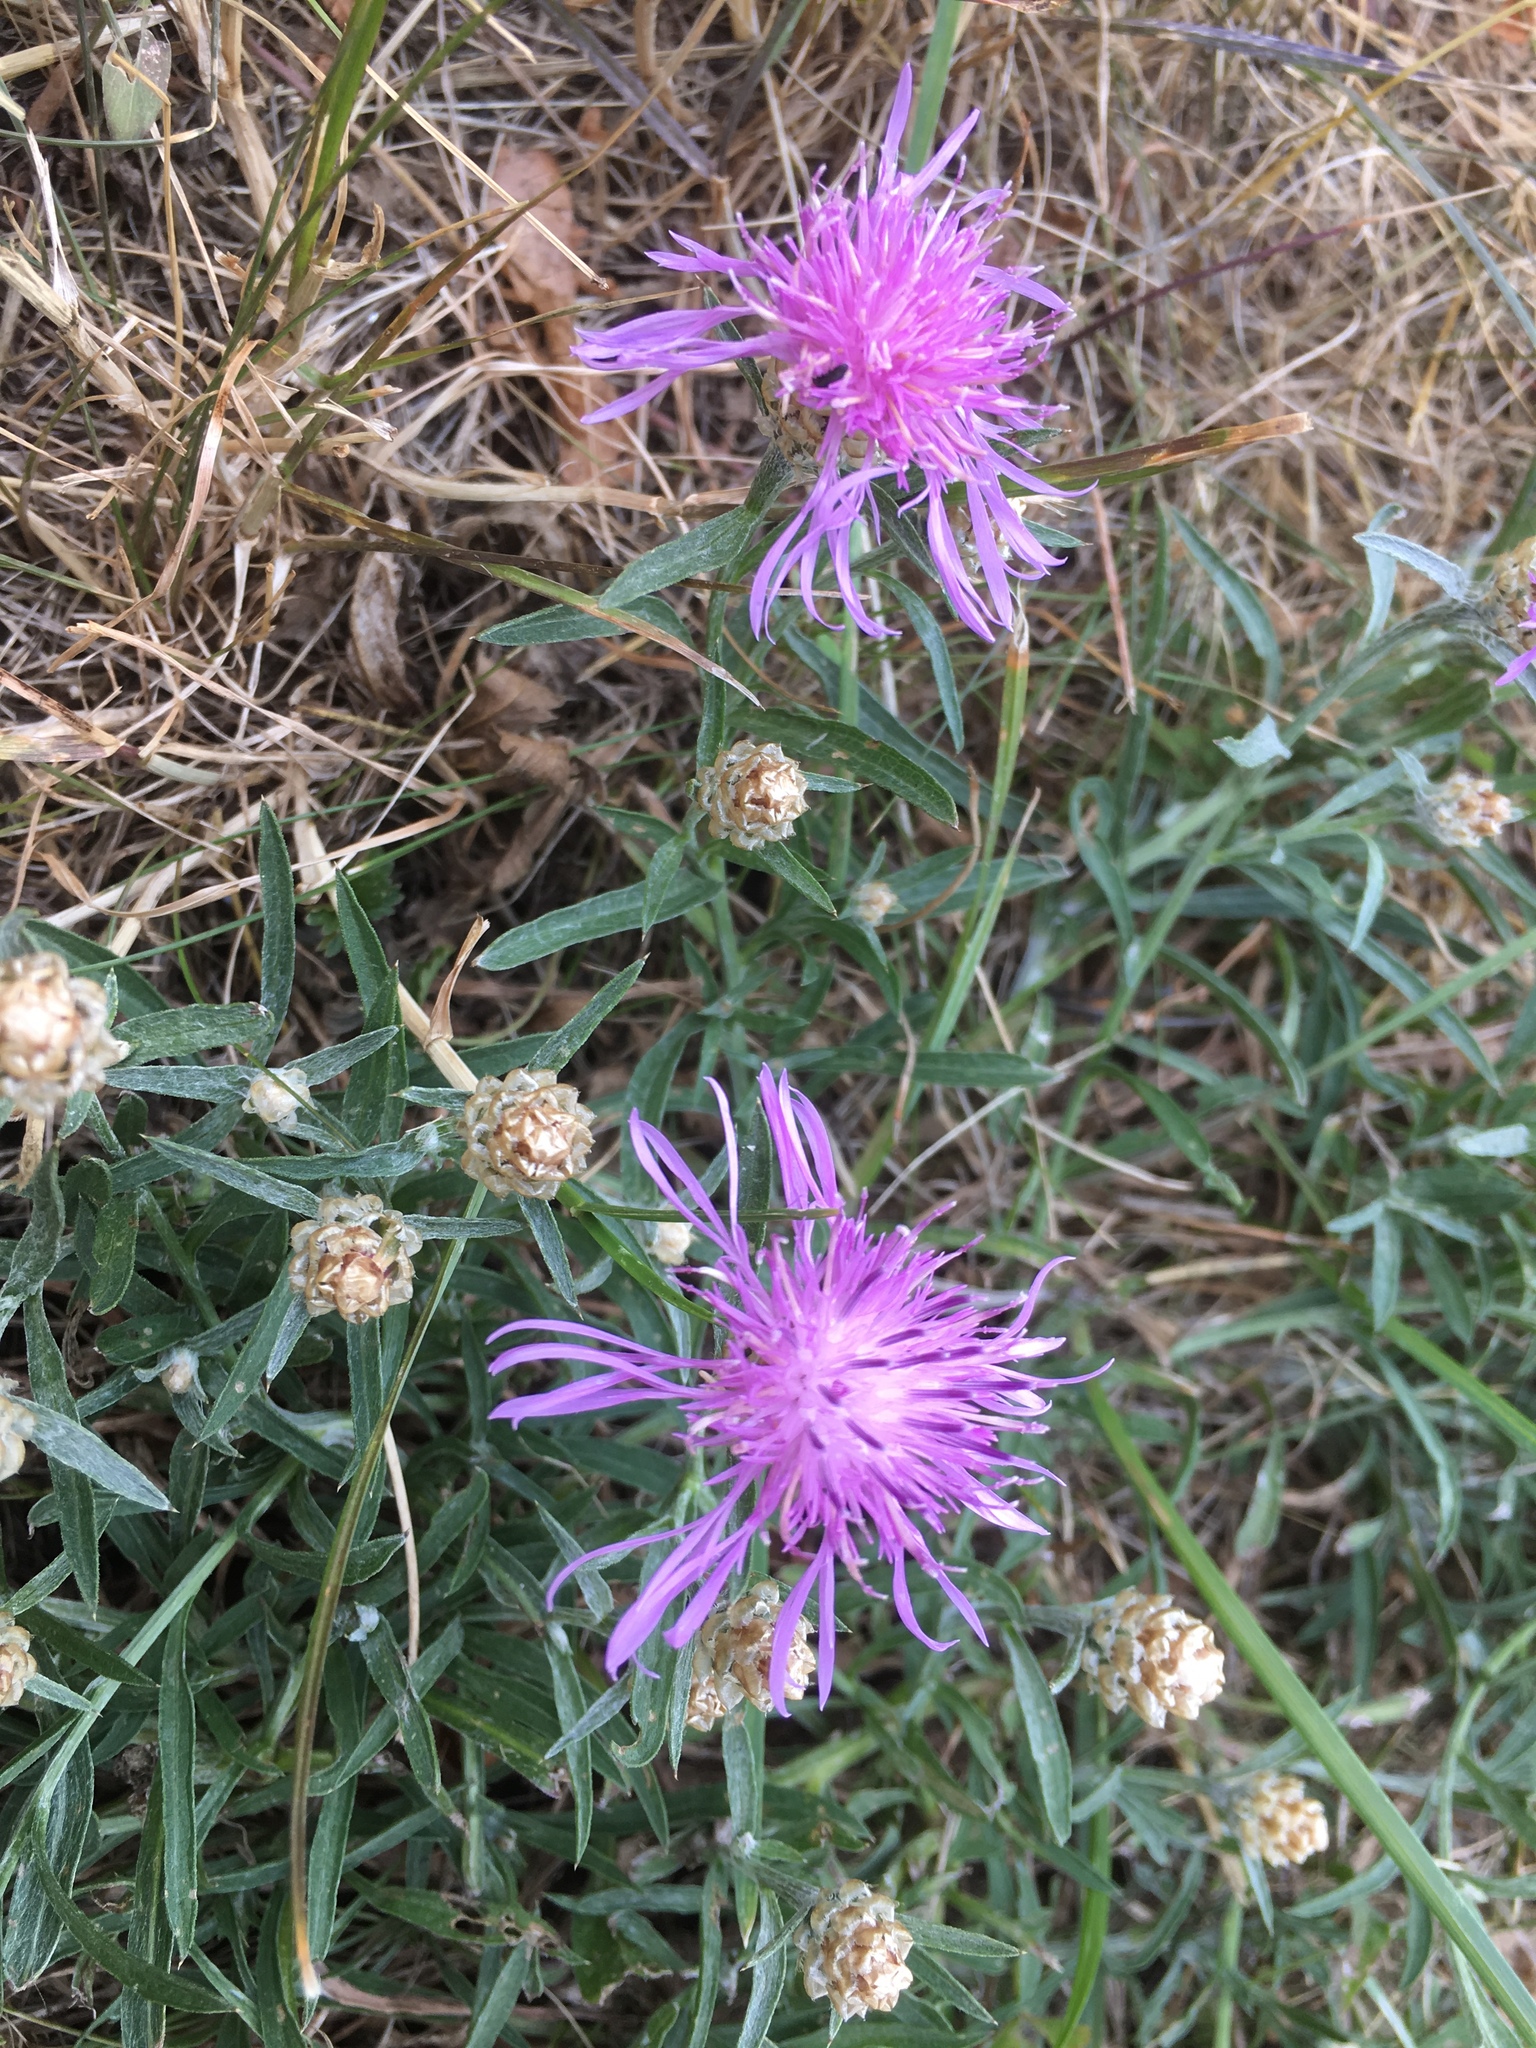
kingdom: Plantae
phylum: Tracheophyta
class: Magnoliopsida
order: Asterales
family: Asteraceae
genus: Centaurea
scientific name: Centaurea jacea
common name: Brown knapweed
